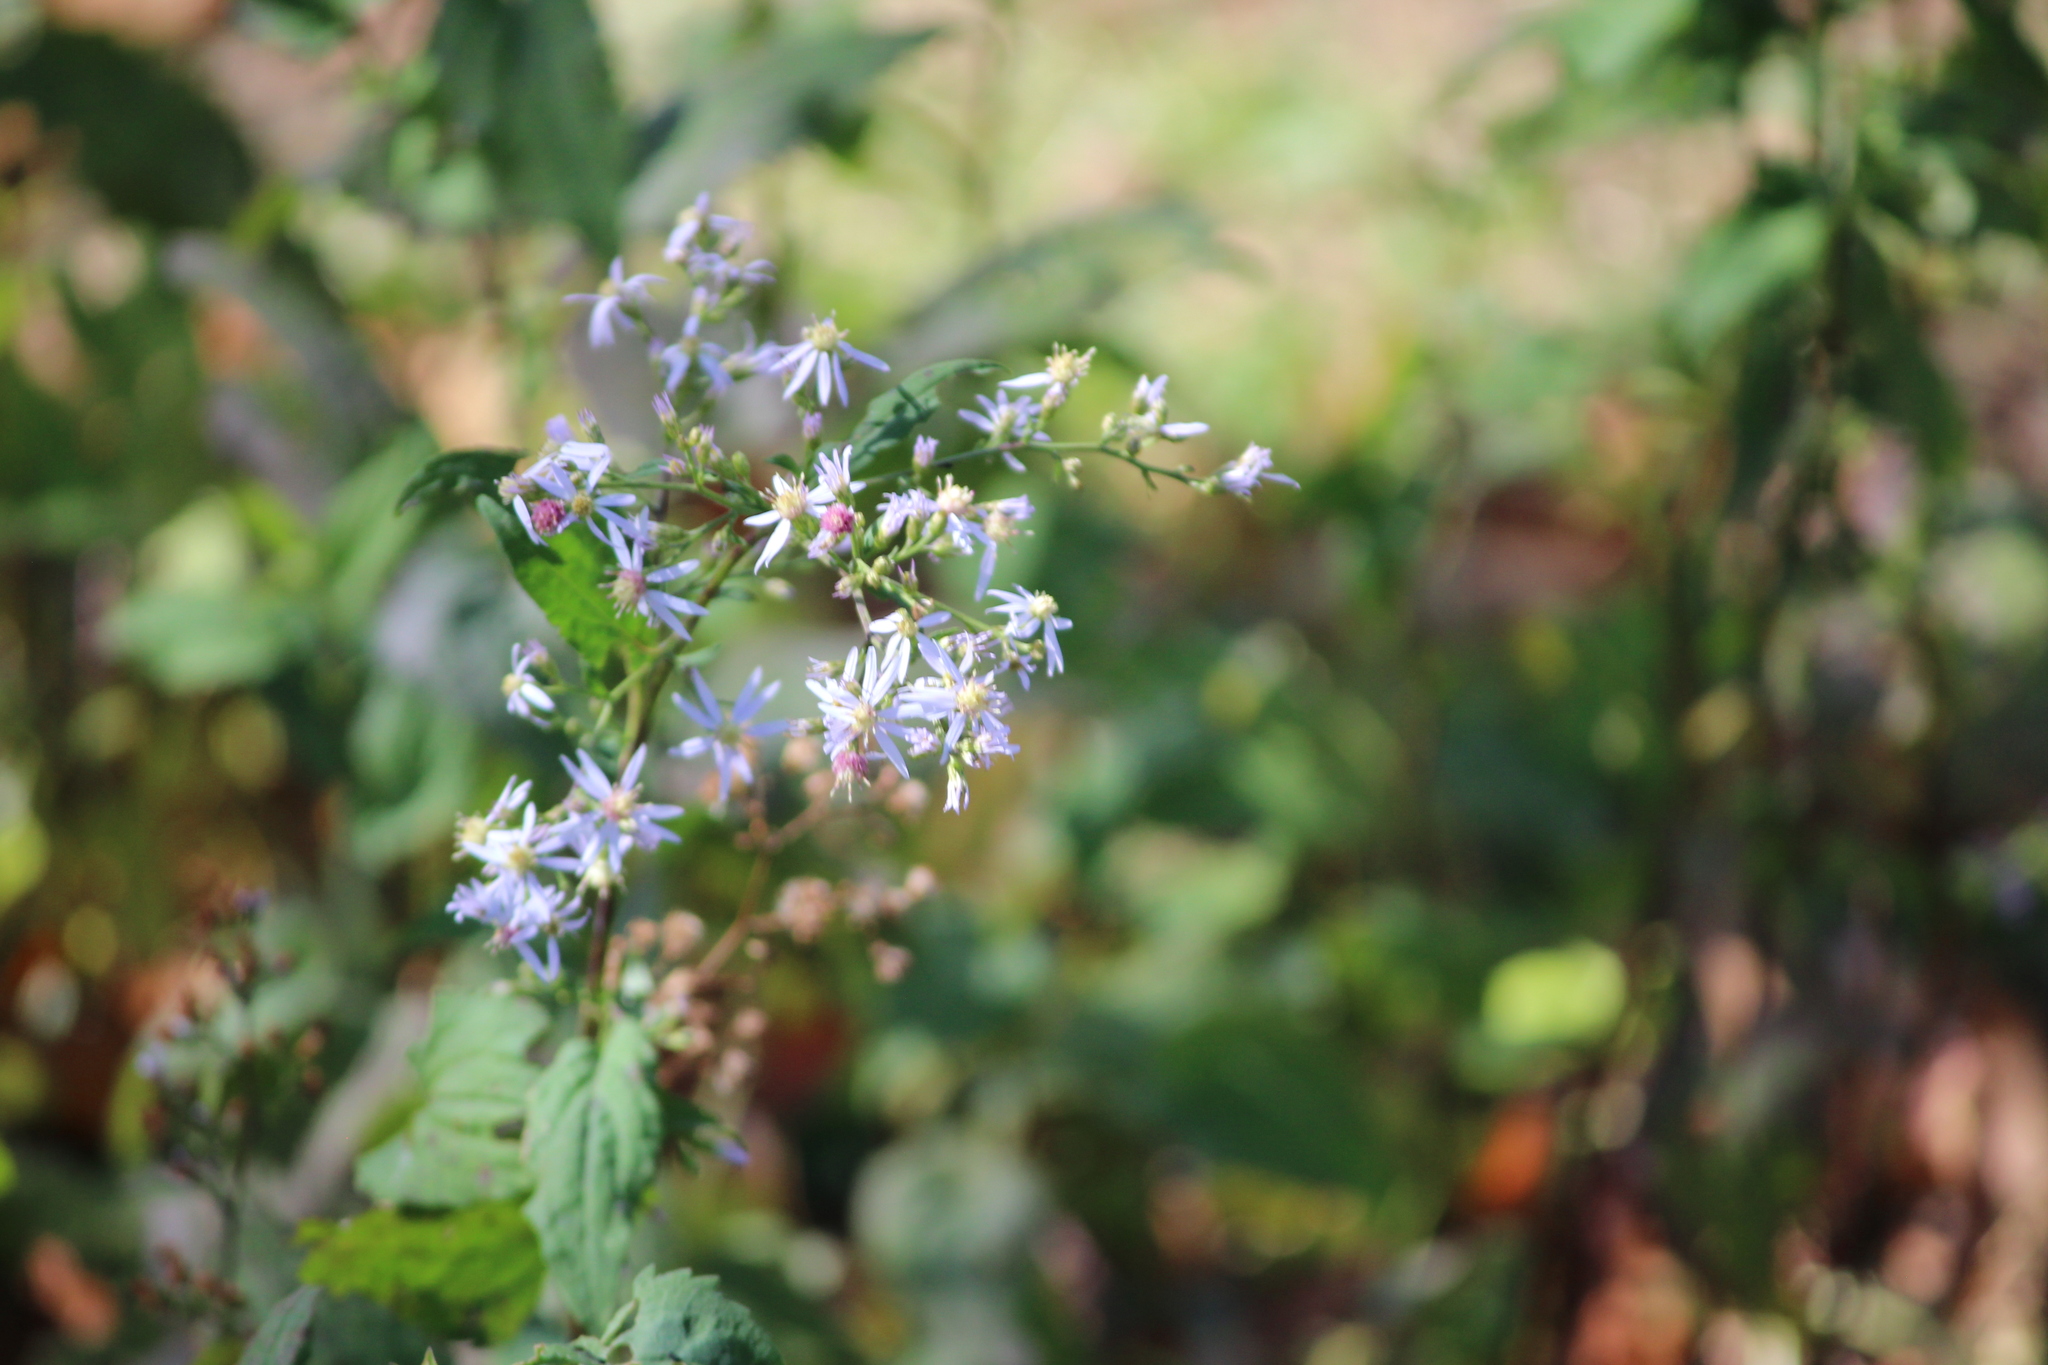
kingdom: Plantae
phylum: Tracheophyta
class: Magnoliopsida
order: Asterales
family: Asteraceae
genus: Symphyotrichum
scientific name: Symphyotrichum cordifolium
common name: Beeweed
